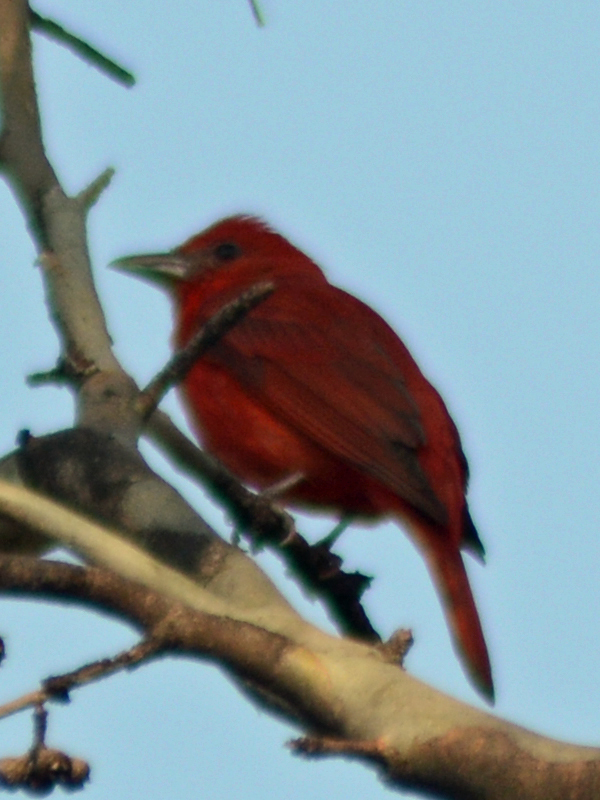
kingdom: Animalia
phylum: Chordata
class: Aves
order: Passeriformes
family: Cardinalidae
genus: Piranga
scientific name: Piranga rubra
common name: Summer tanager
